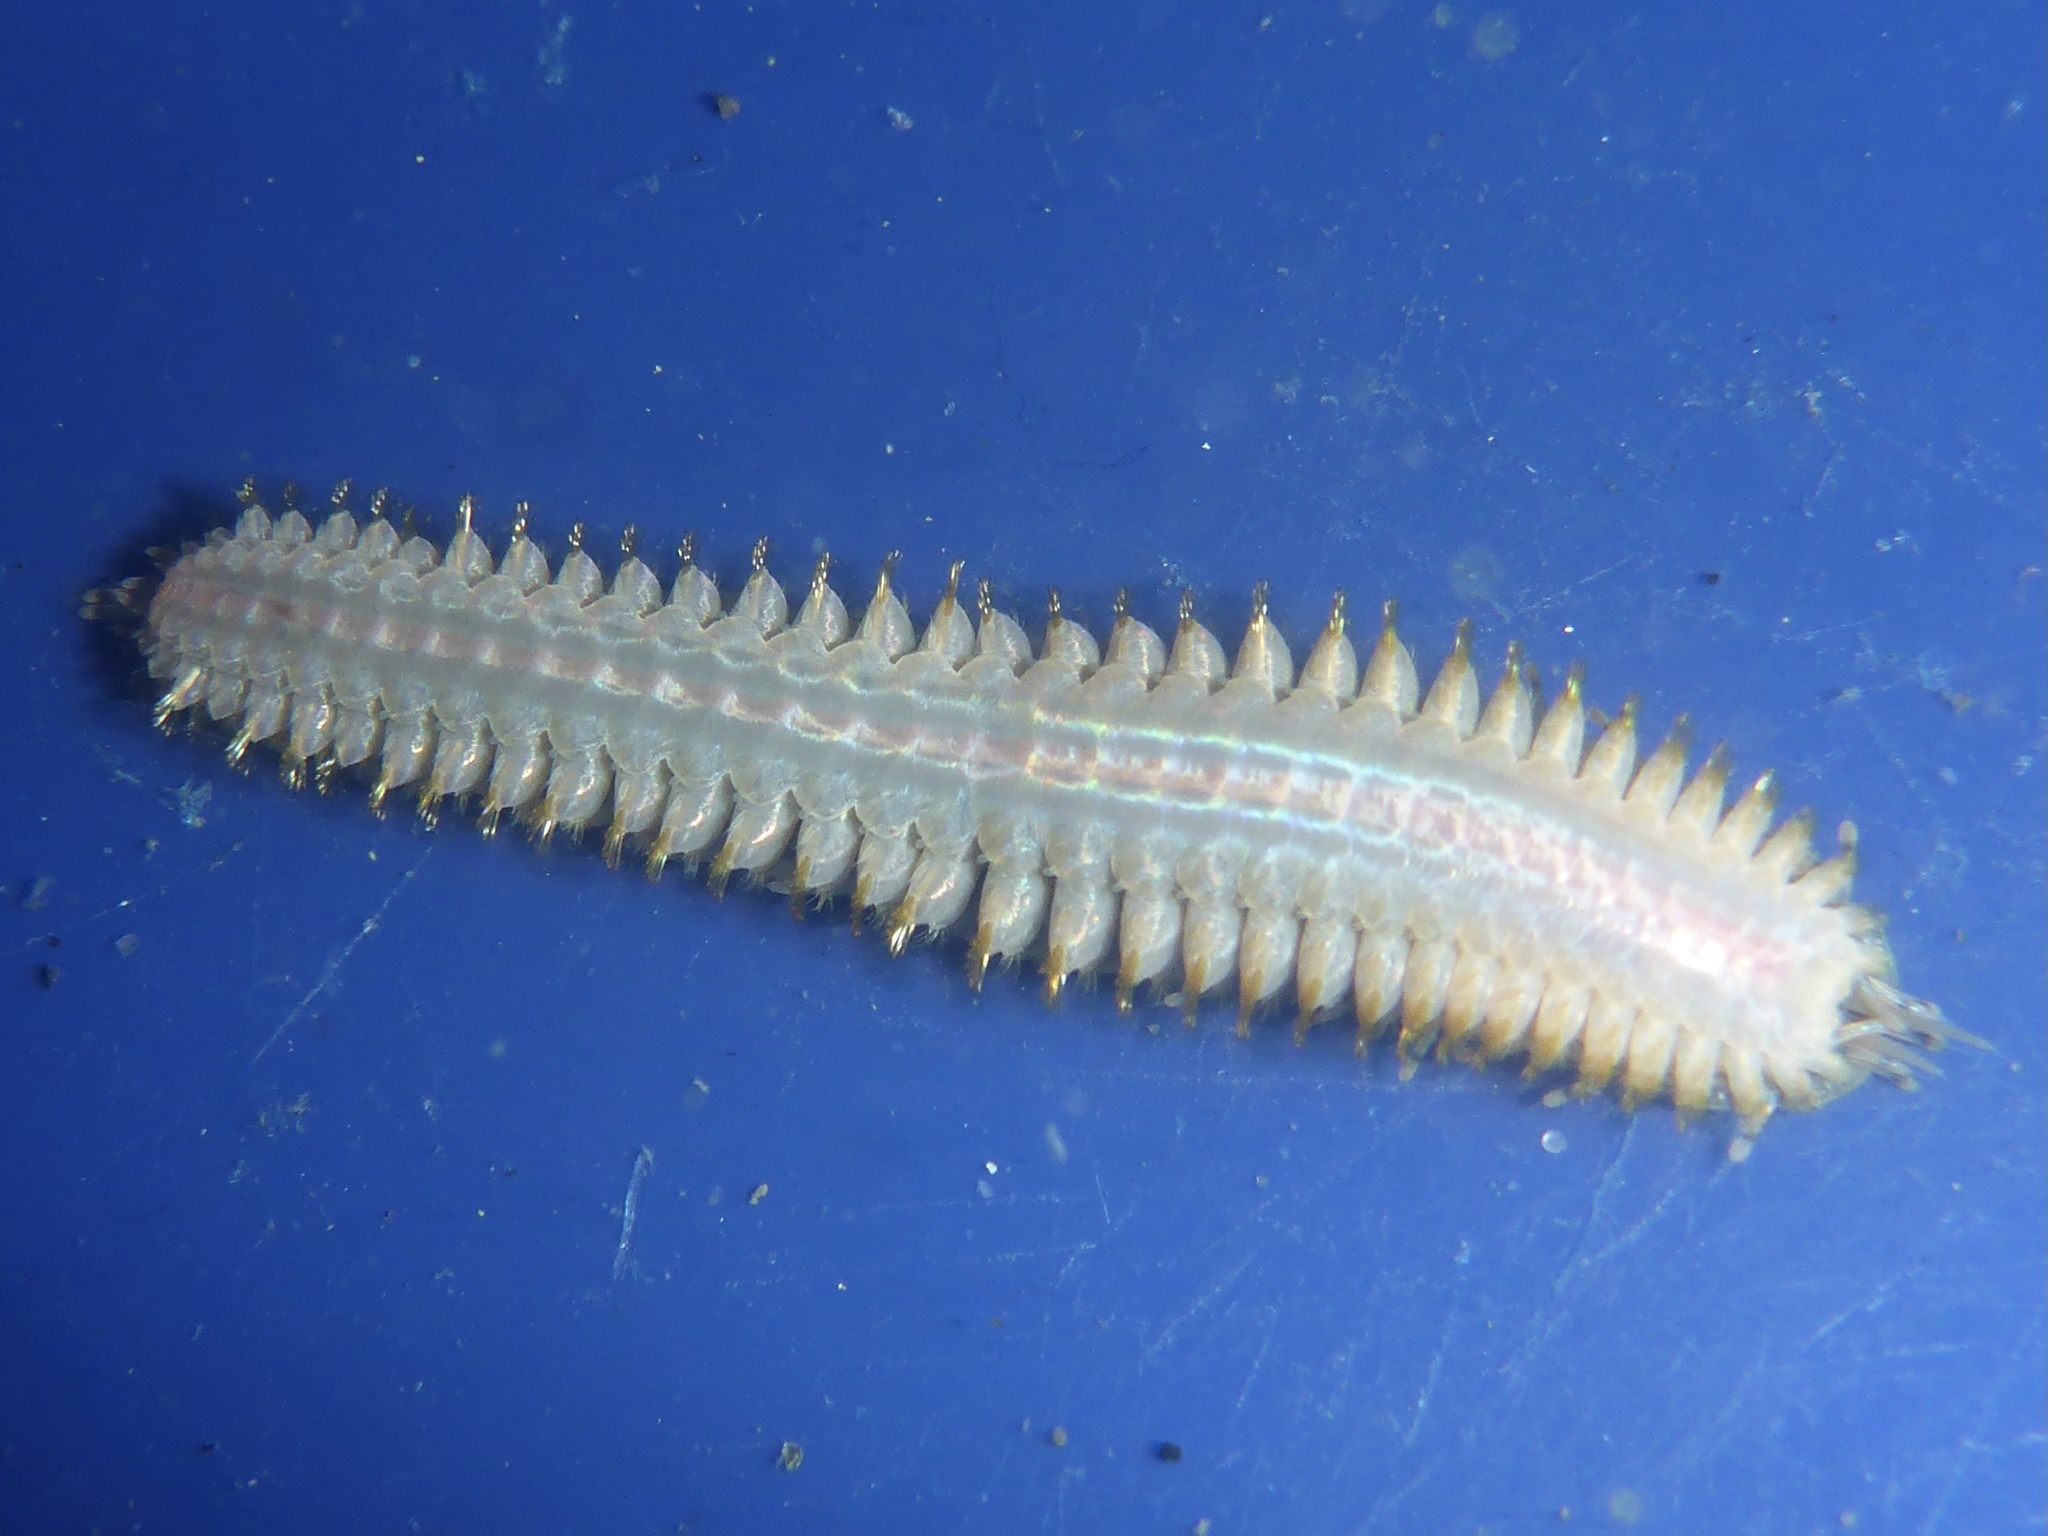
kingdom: Animalia
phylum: Annelida
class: Polychaeta
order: Phyllodocida
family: Polynoidae
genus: Halosydna
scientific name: Halosydna brevisetosa
